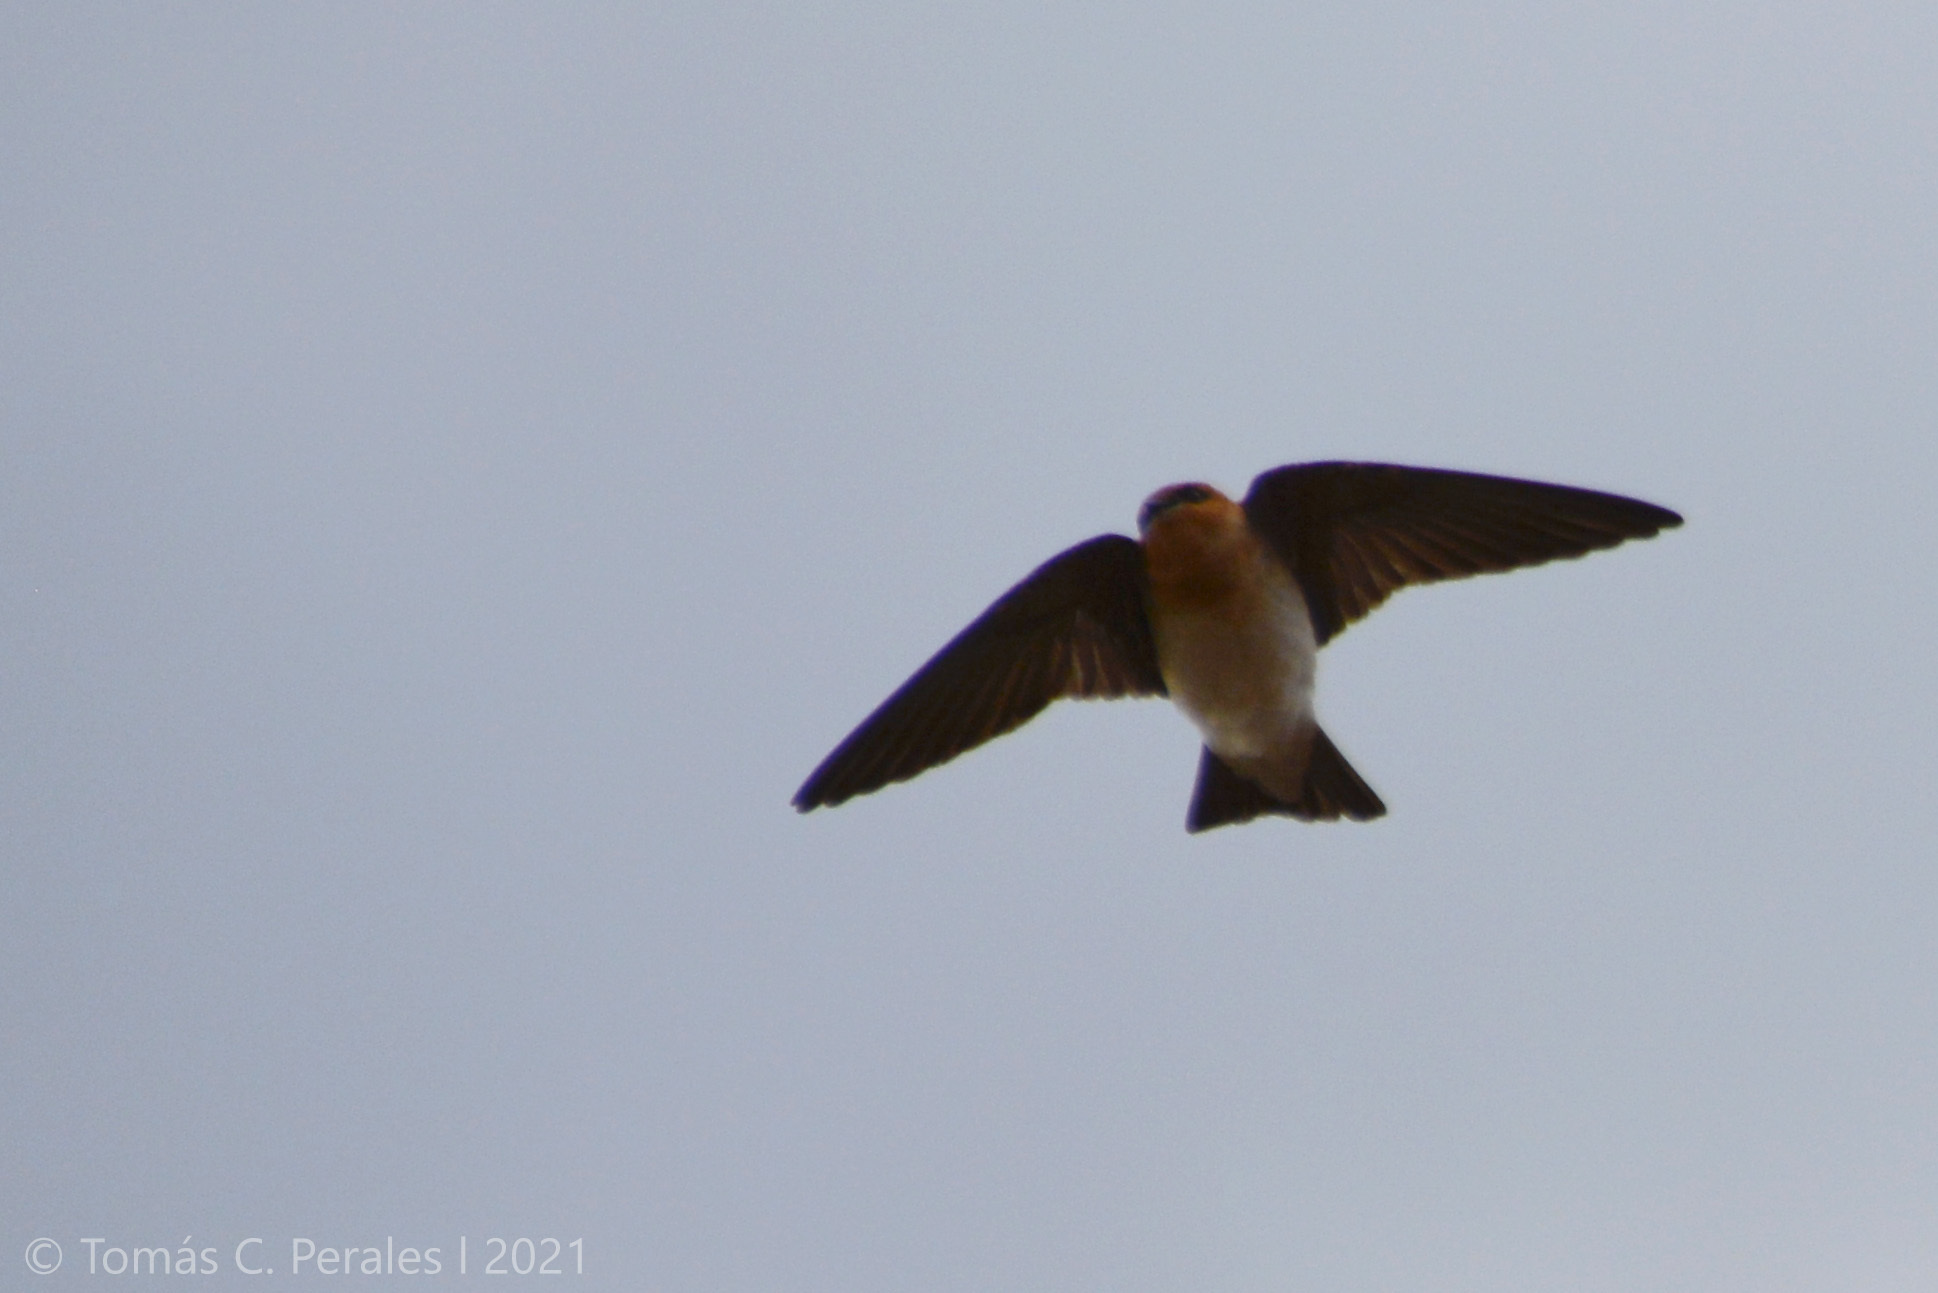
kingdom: Animalia
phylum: Chordata
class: Aves
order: Passeriformes
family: Hirundinidae
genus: Alopochelidon
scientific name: Alopochelidon fucata
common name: Tawny-headed swallow
